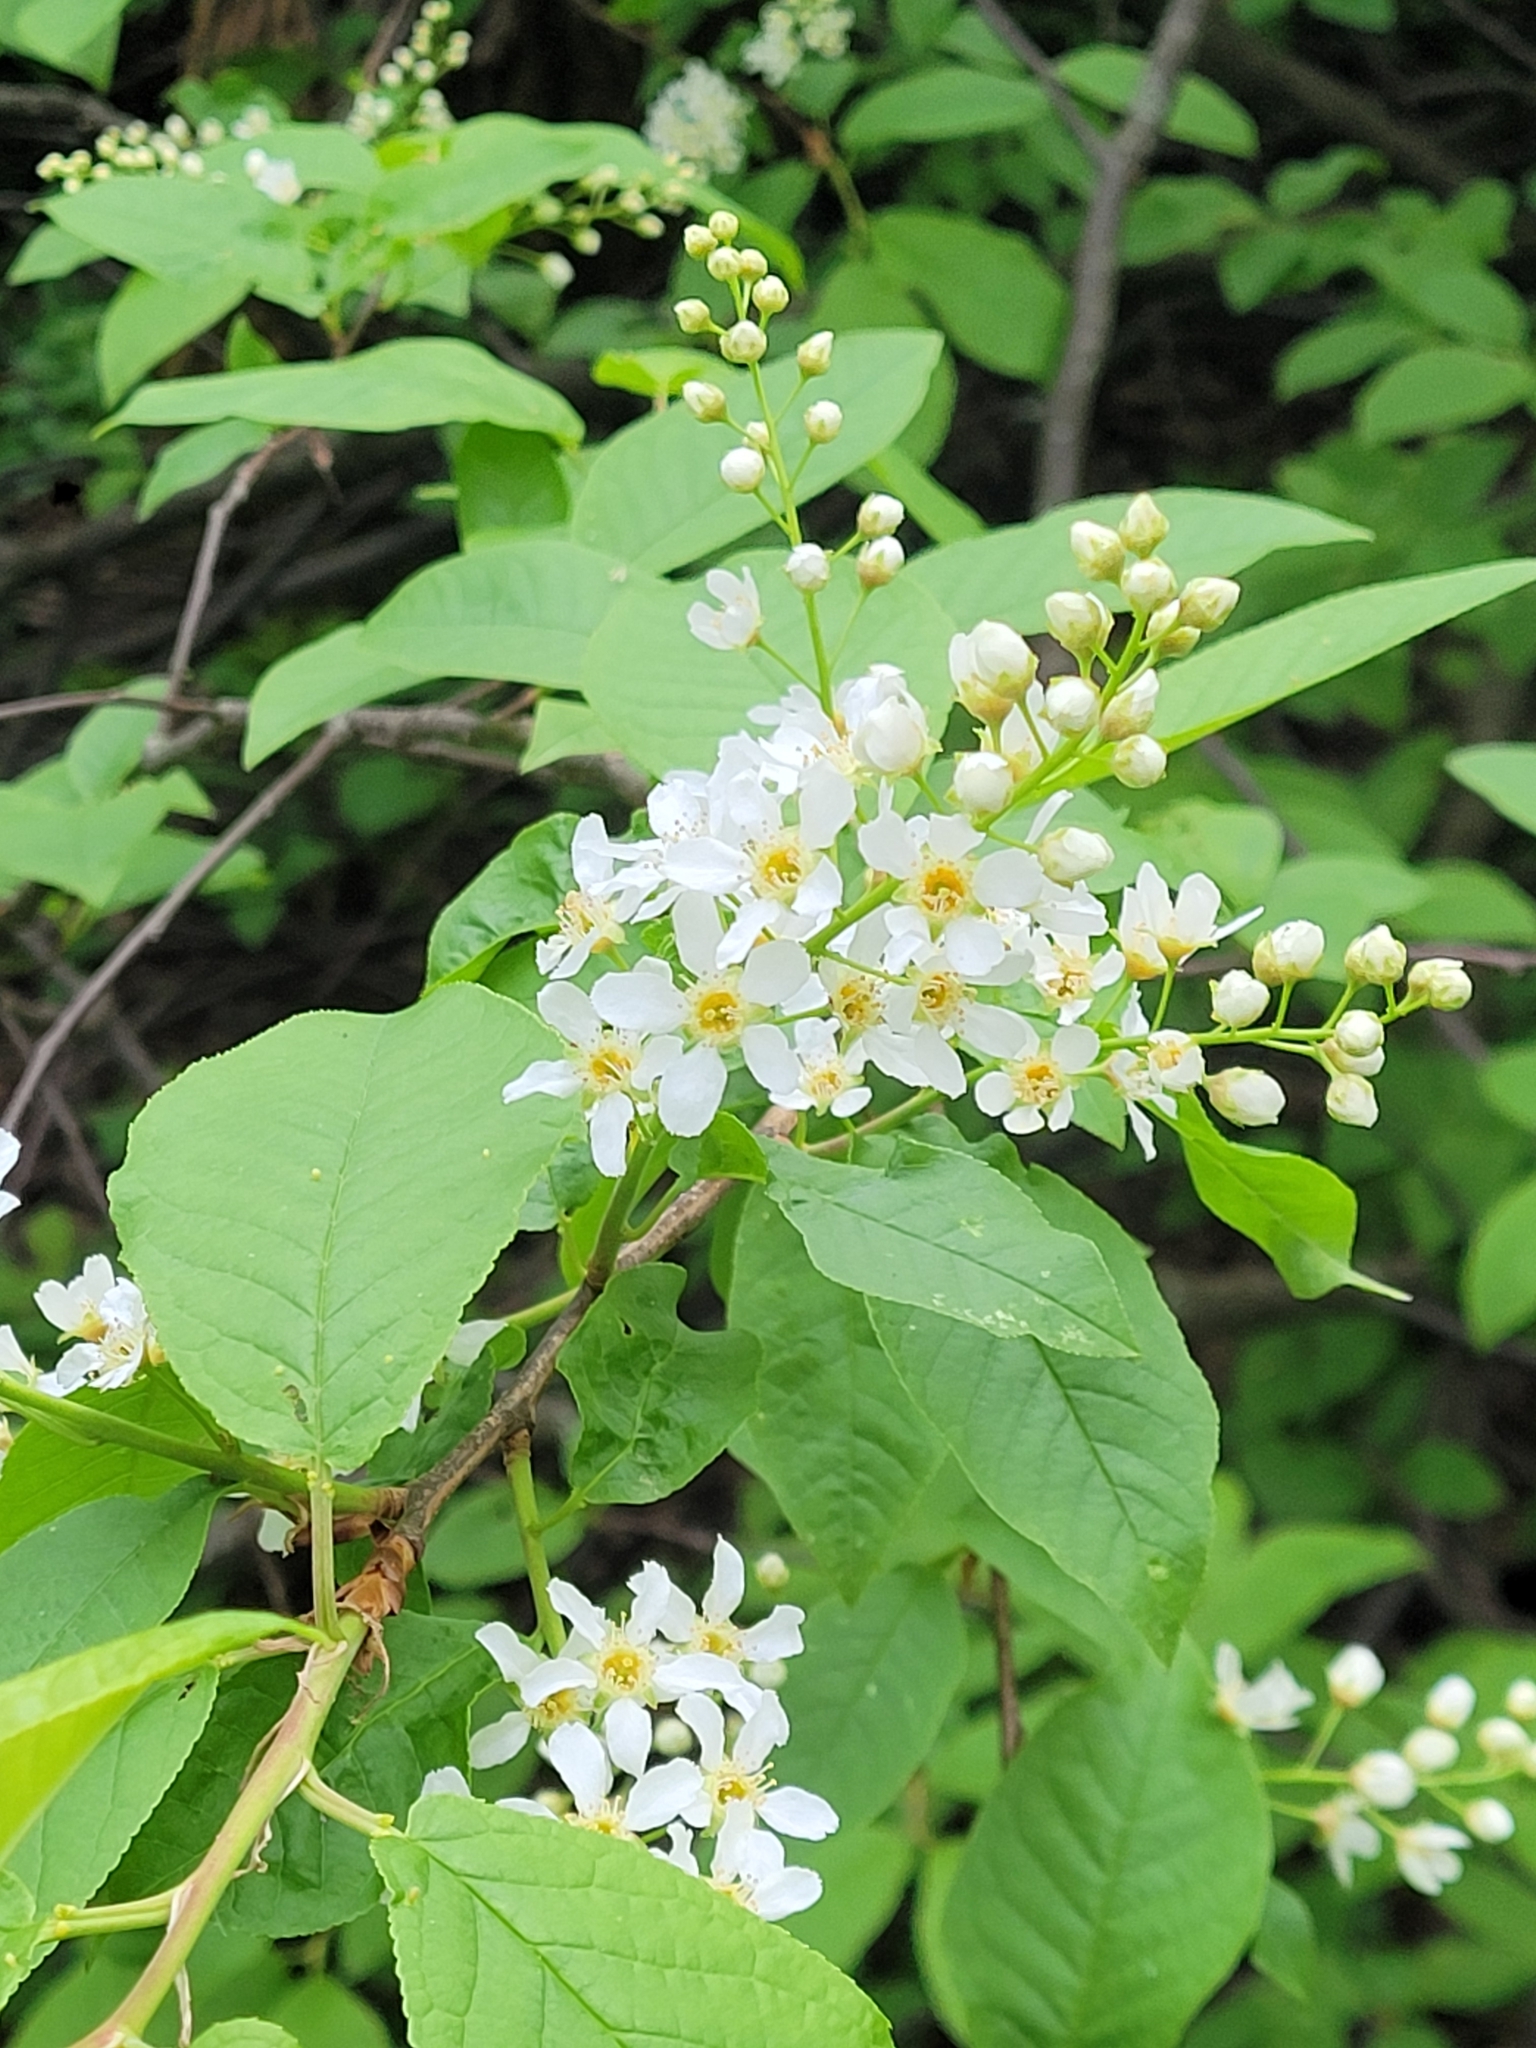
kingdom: Plantae
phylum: Tracheophyta
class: Magnoliopsida
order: Rosales
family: Rosaceae
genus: Prunus
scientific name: Prunus padus
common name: Bird cherry
